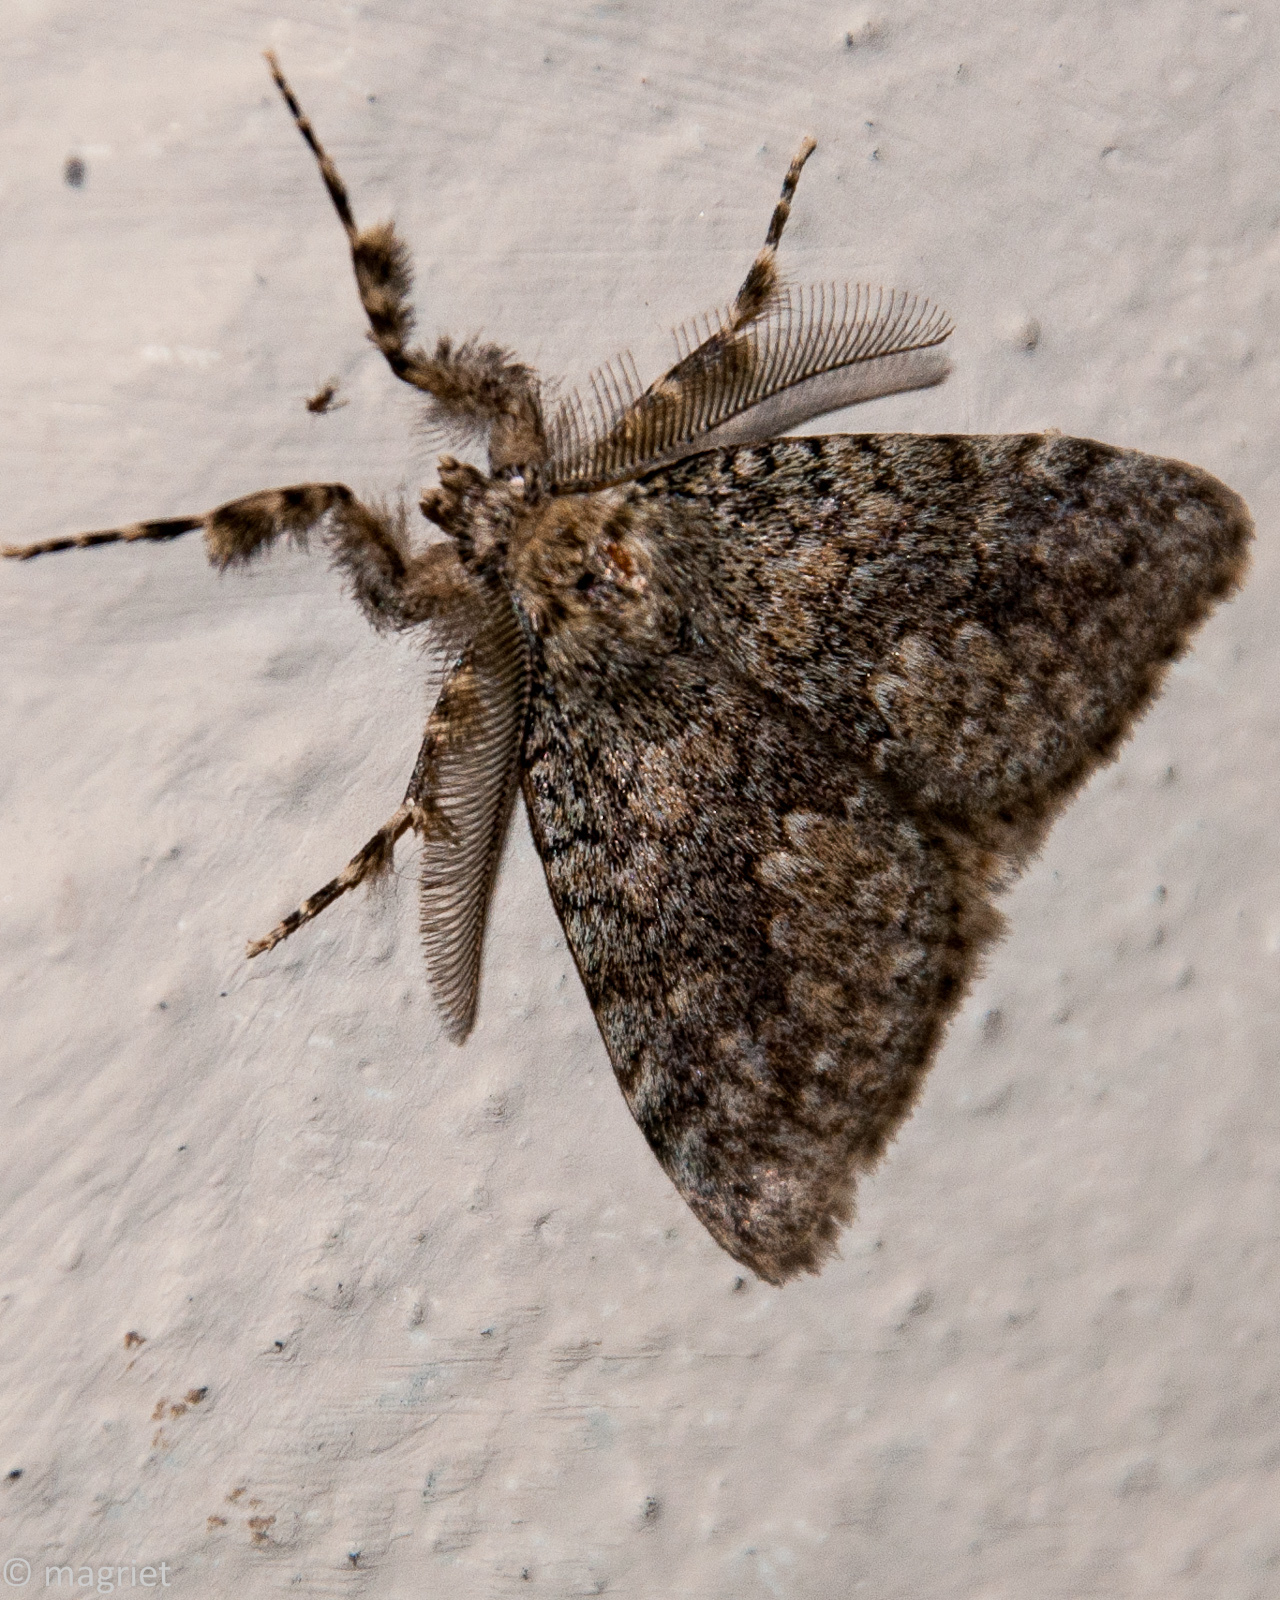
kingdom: Animalia
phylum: Arthropoda
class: Insecta
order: Lepidoptera
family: Erebidae
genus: Laelia
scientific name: Laelia fusca
